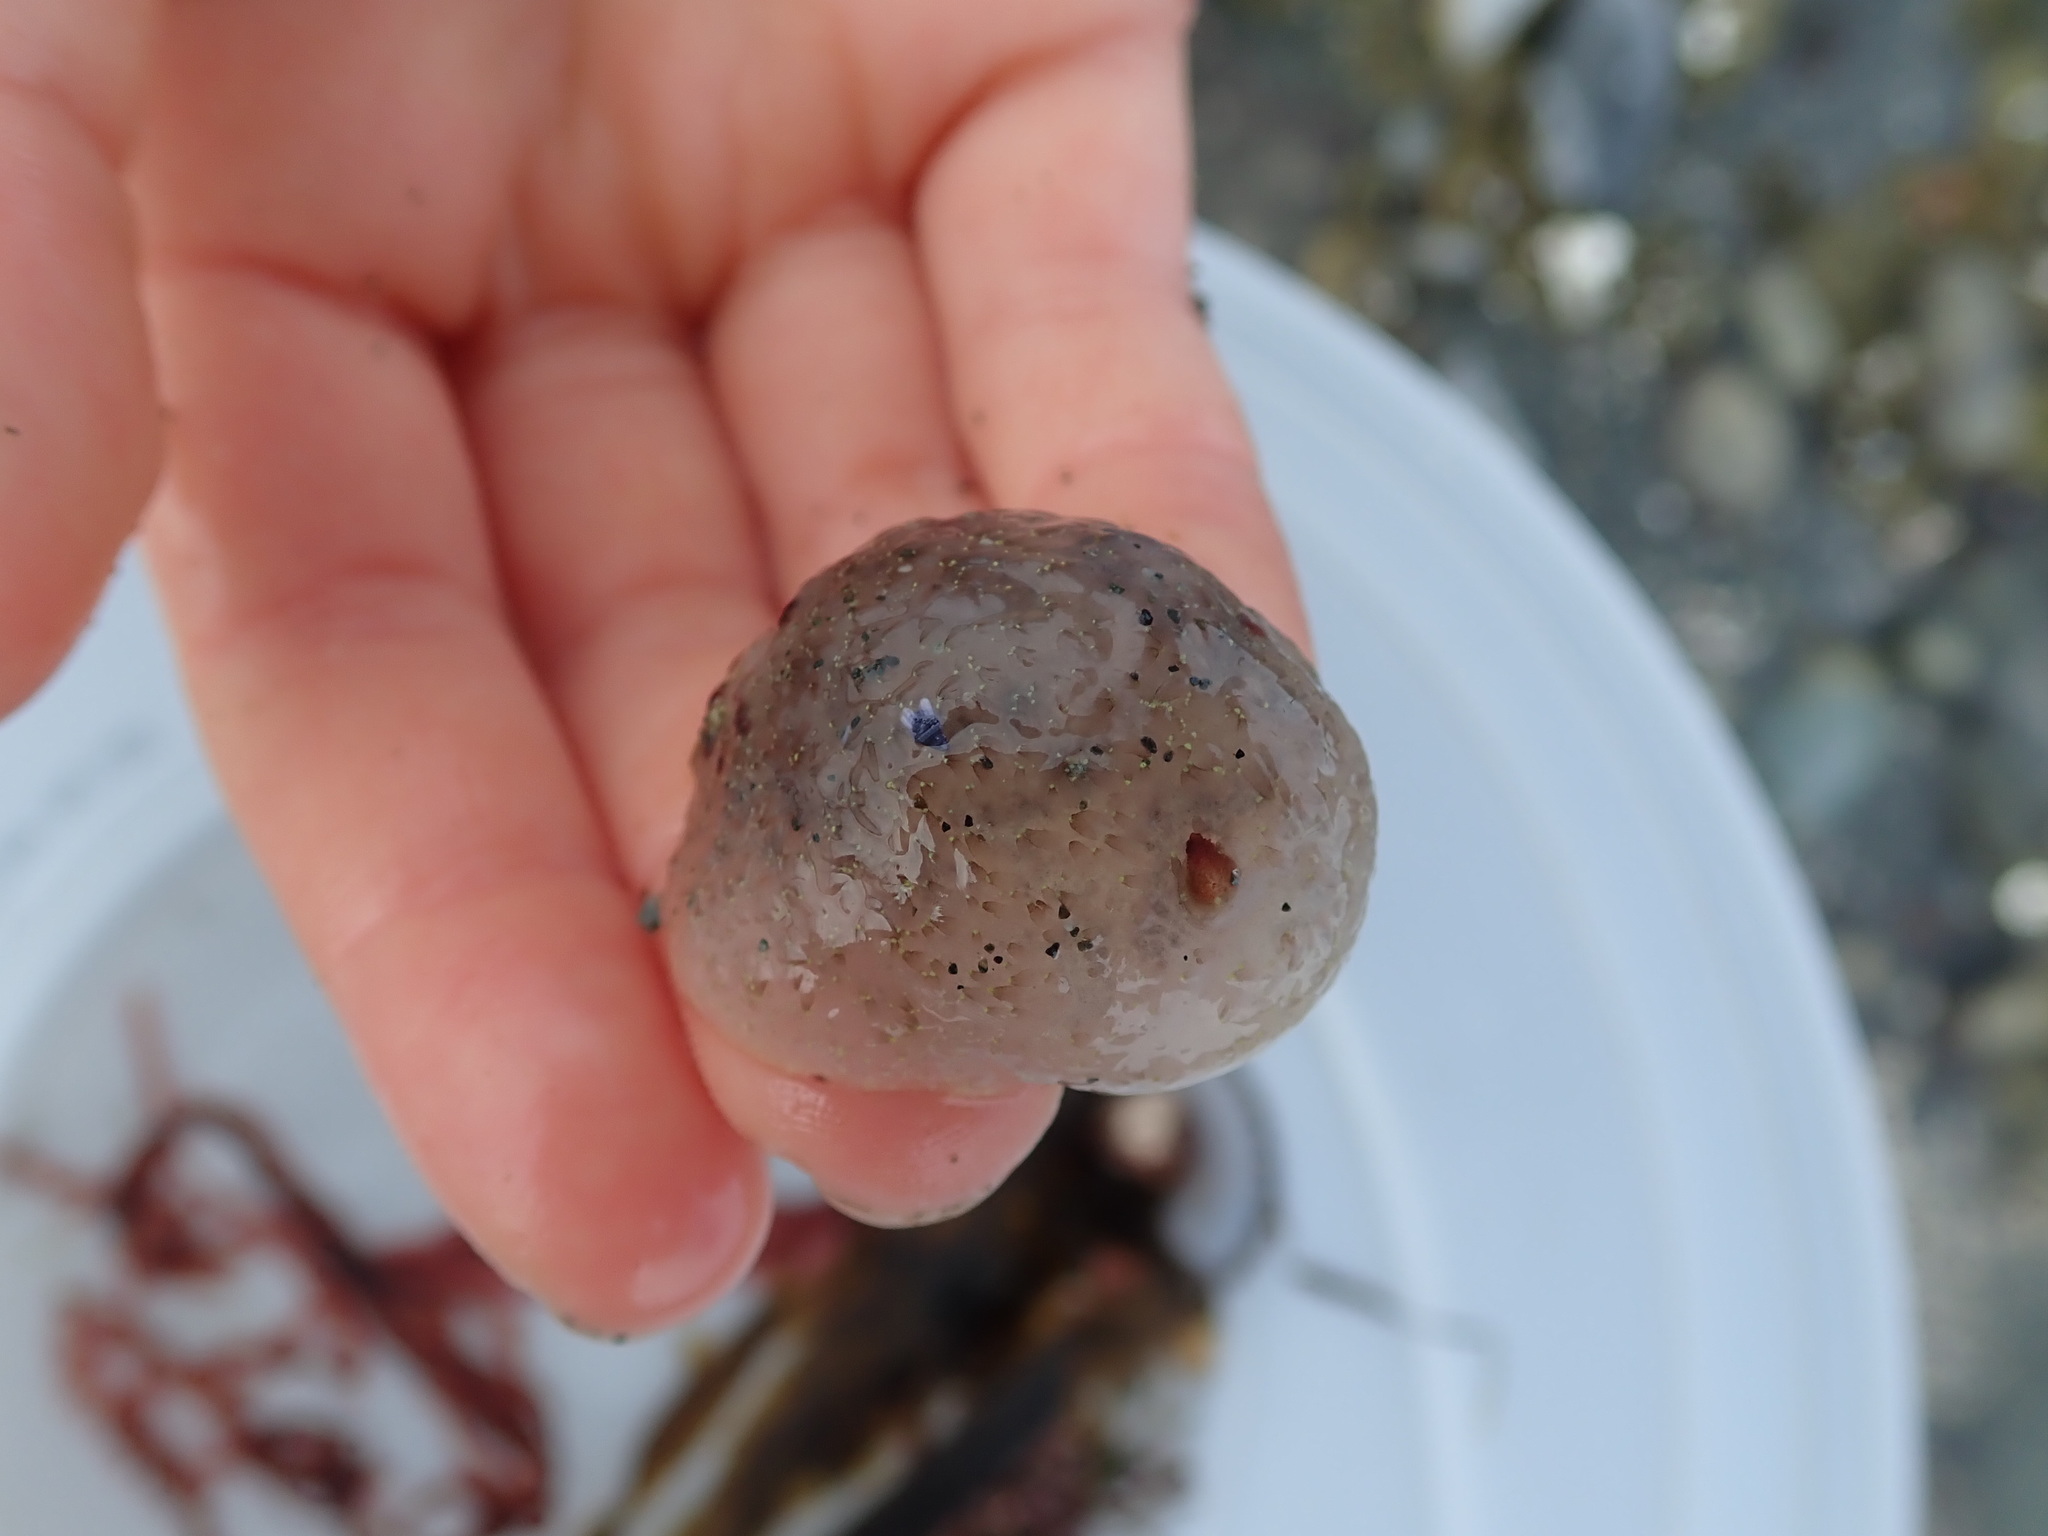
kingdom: Animalia
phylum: Mollusca
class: Gastropoda
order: Nudibranchia
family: Onchidorididae
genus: Acanthodoris
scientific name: Acanthodoris nanaimoensis
